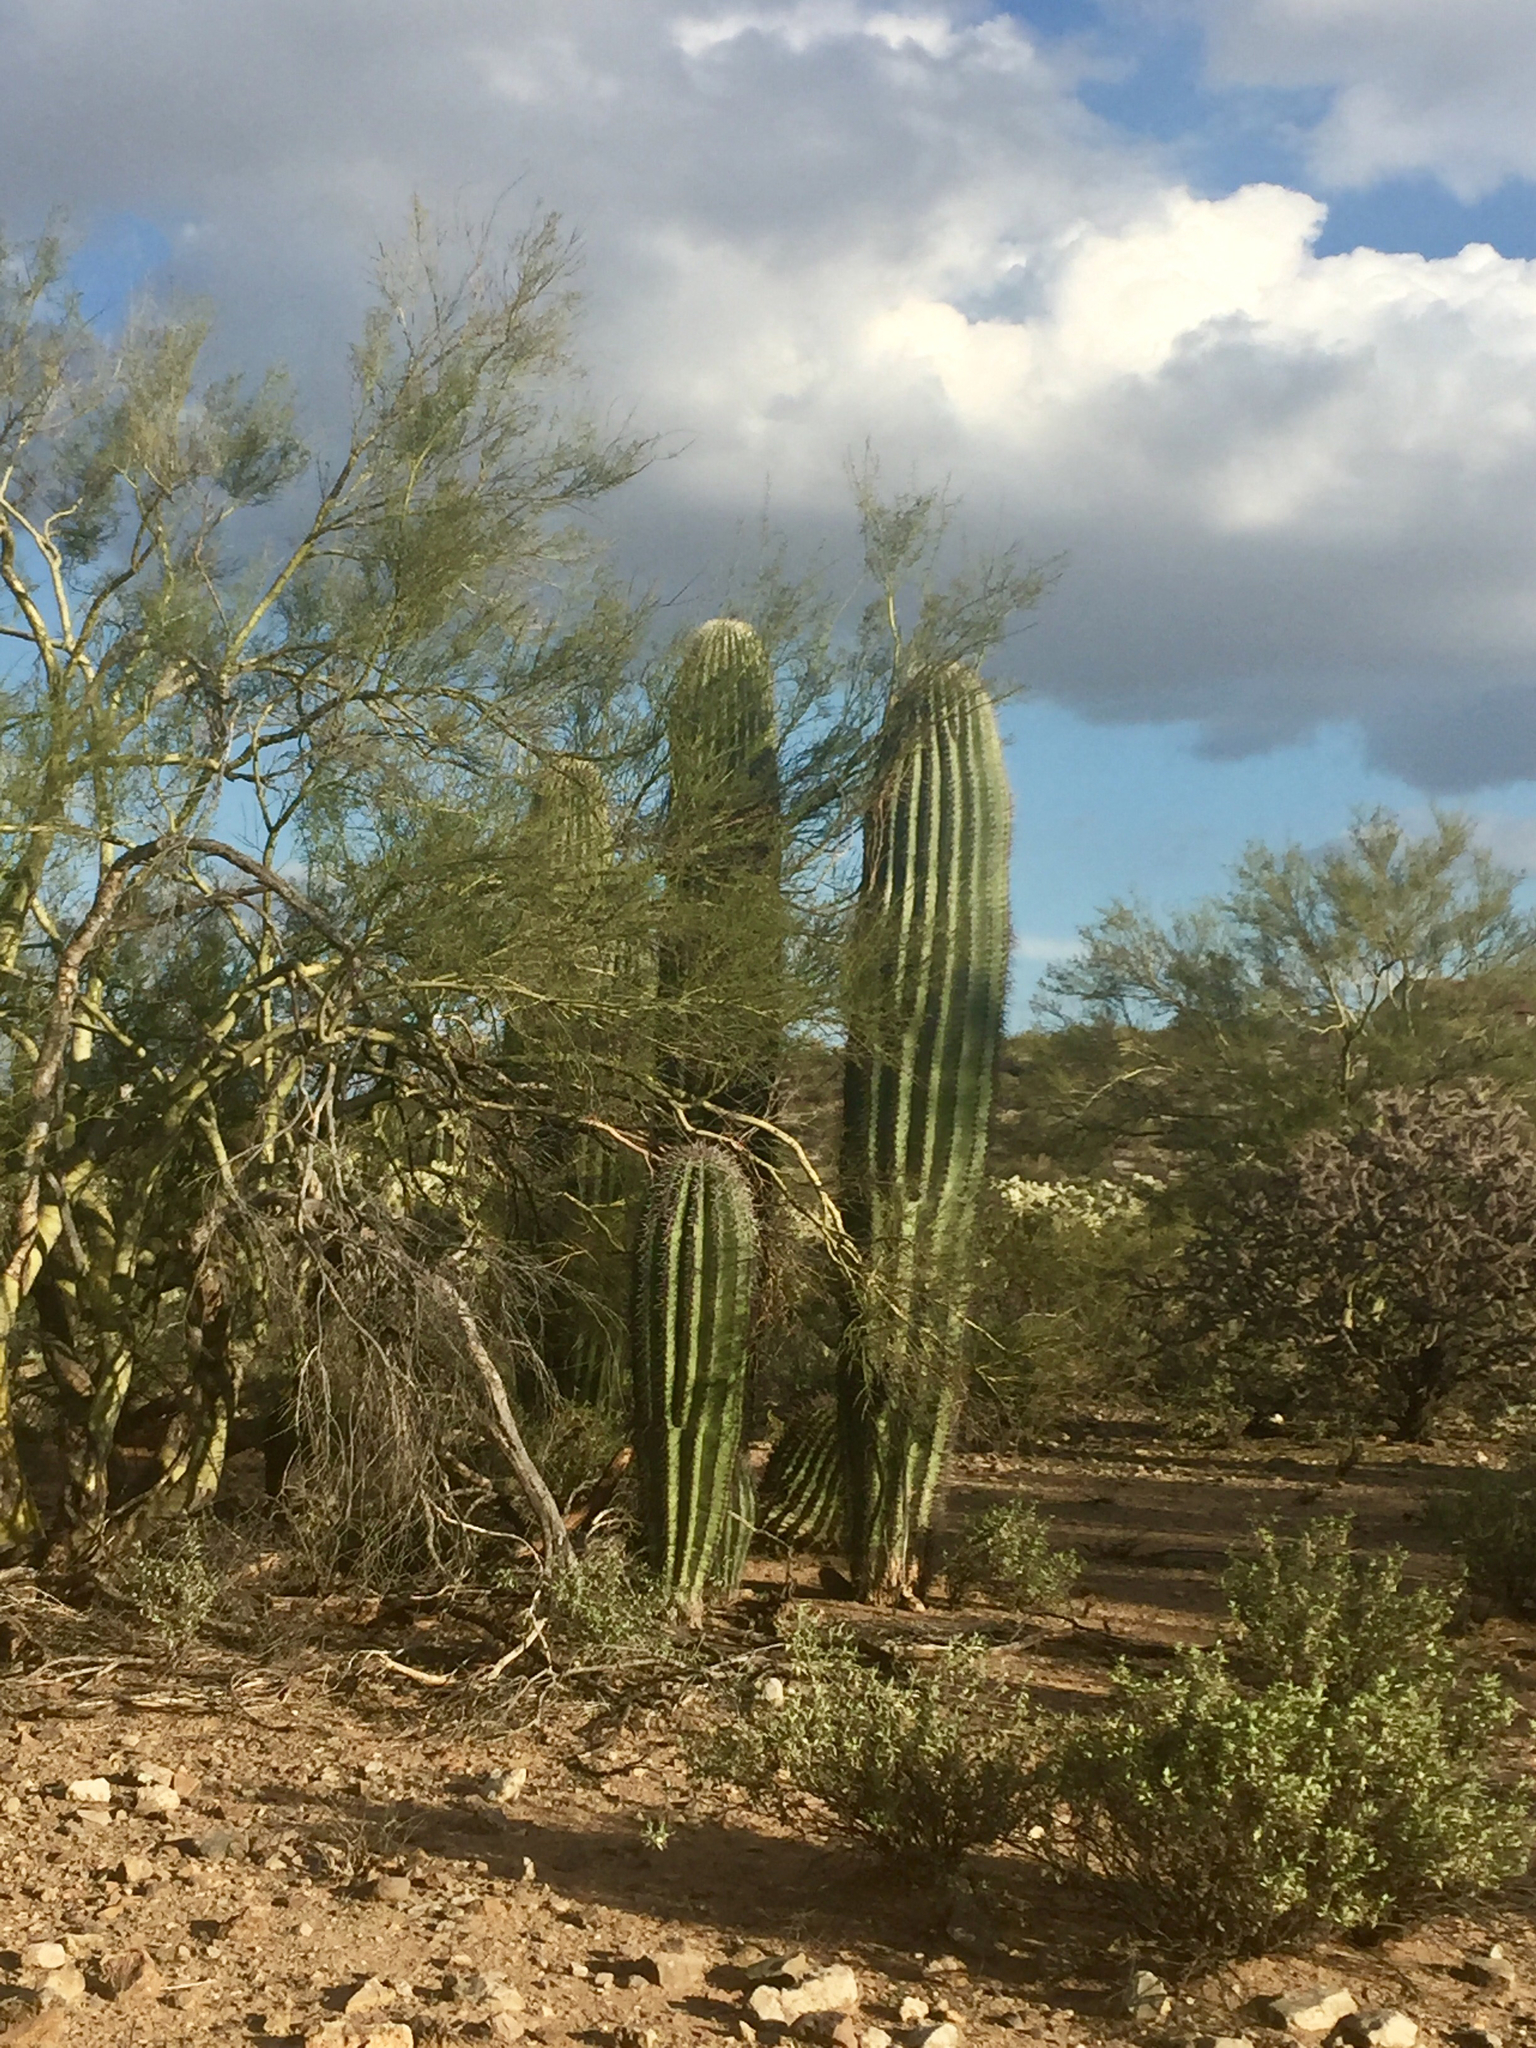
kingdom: Plantae
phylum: Tracheophyta
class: Magnoliopsida
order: Caryophyllales
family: Cactaceae
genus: Carnegiea
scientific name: Carnegiea gigantea
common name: Saguaro
